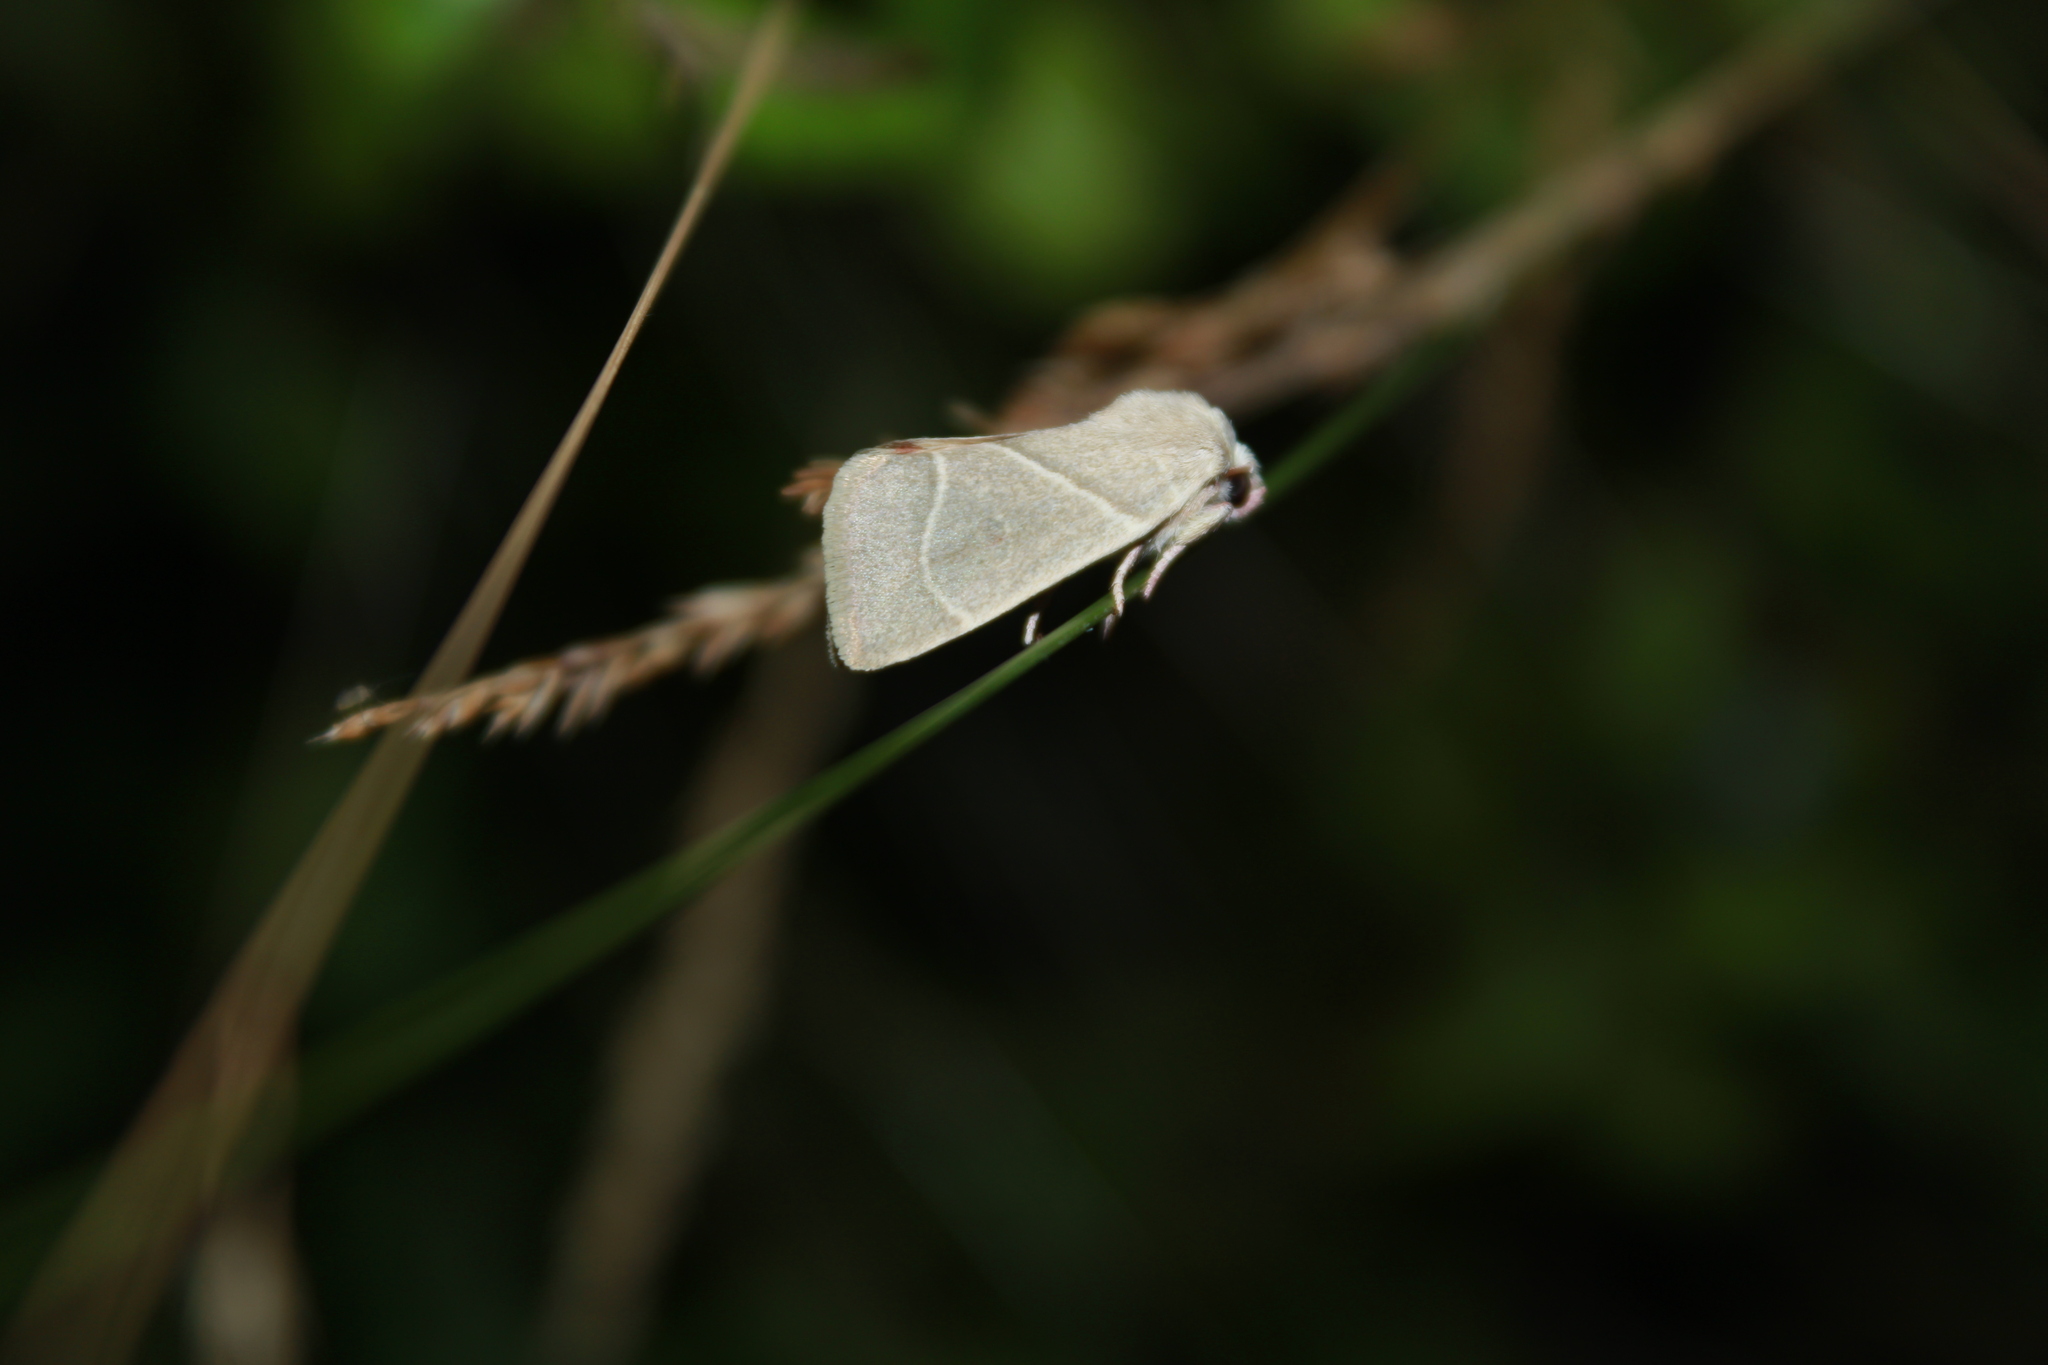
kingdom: Animalia
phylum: Arthropoda
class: Insecta
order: Lepidoptera
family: Noctuidae
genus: Cosmia
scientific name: Cosmia calami
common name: American dun-bar moth
